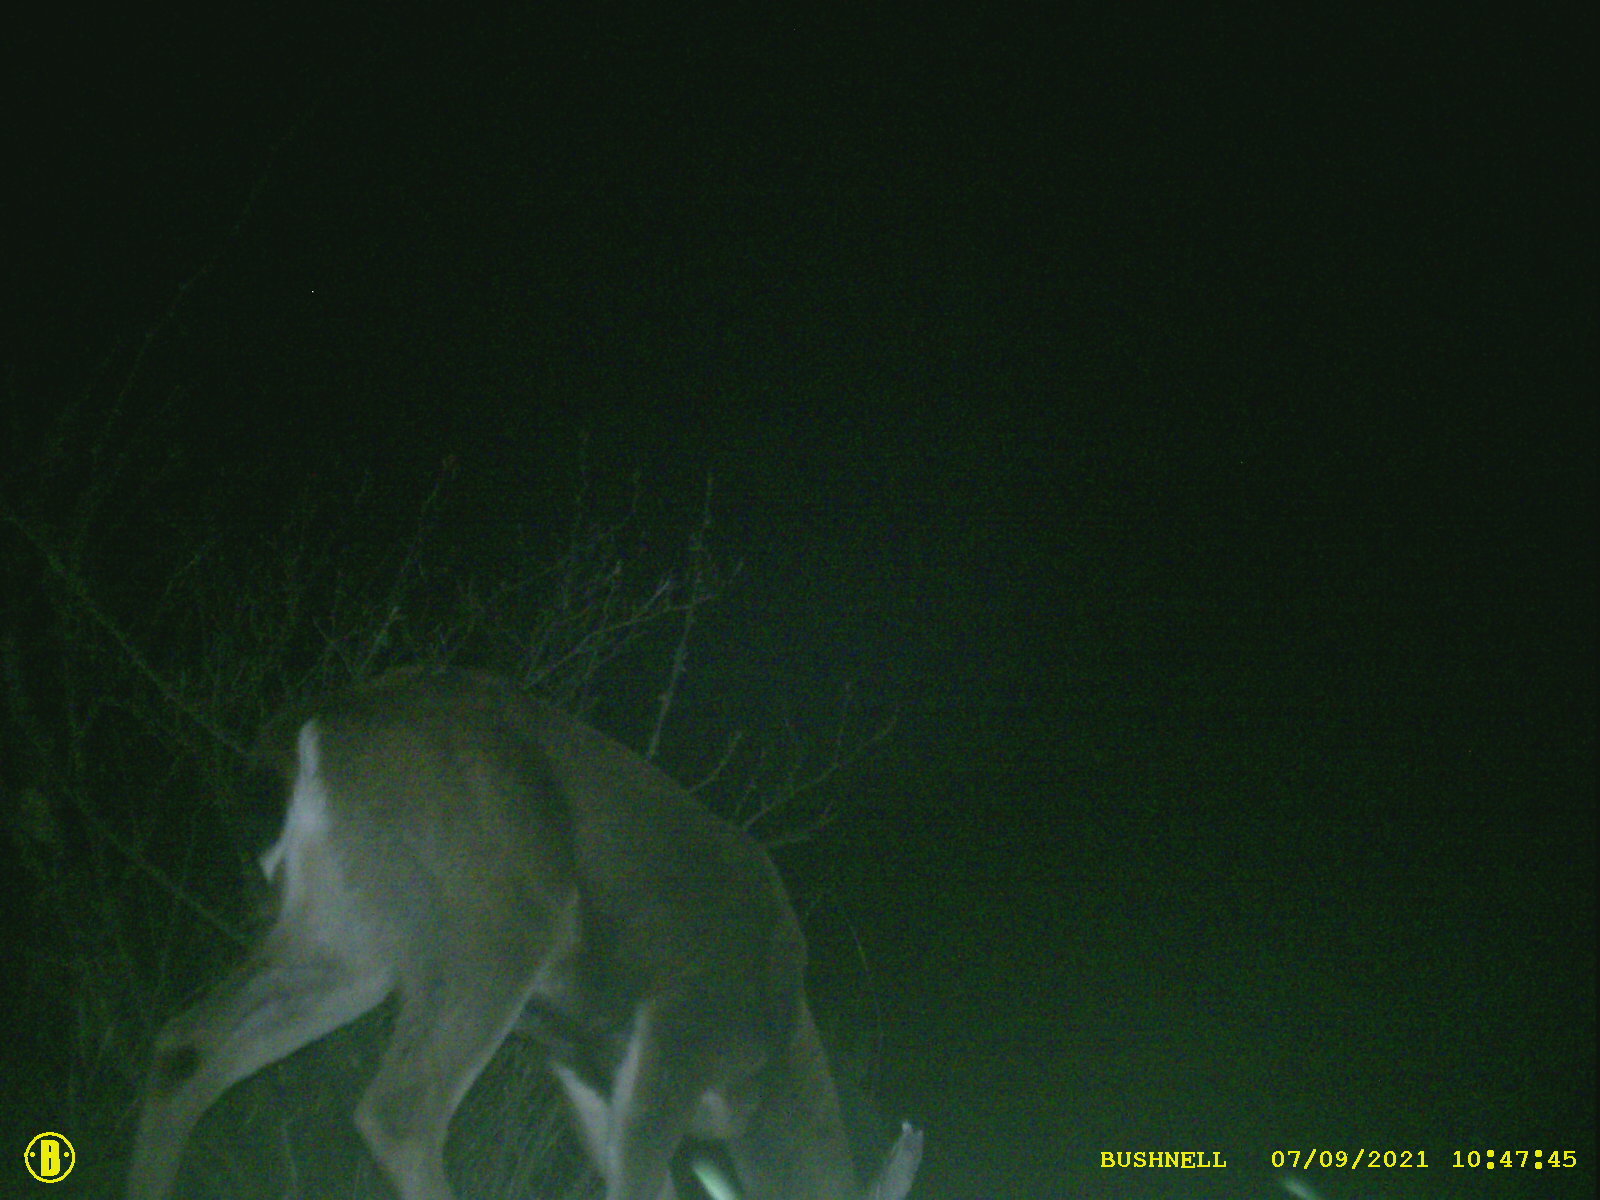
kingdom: Animalia
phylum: Chordata
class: Mammalia
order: Artiodactyla
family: Cervidae
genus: Odocoileus
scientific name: Odocoileus hemionus
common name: Mule deer
